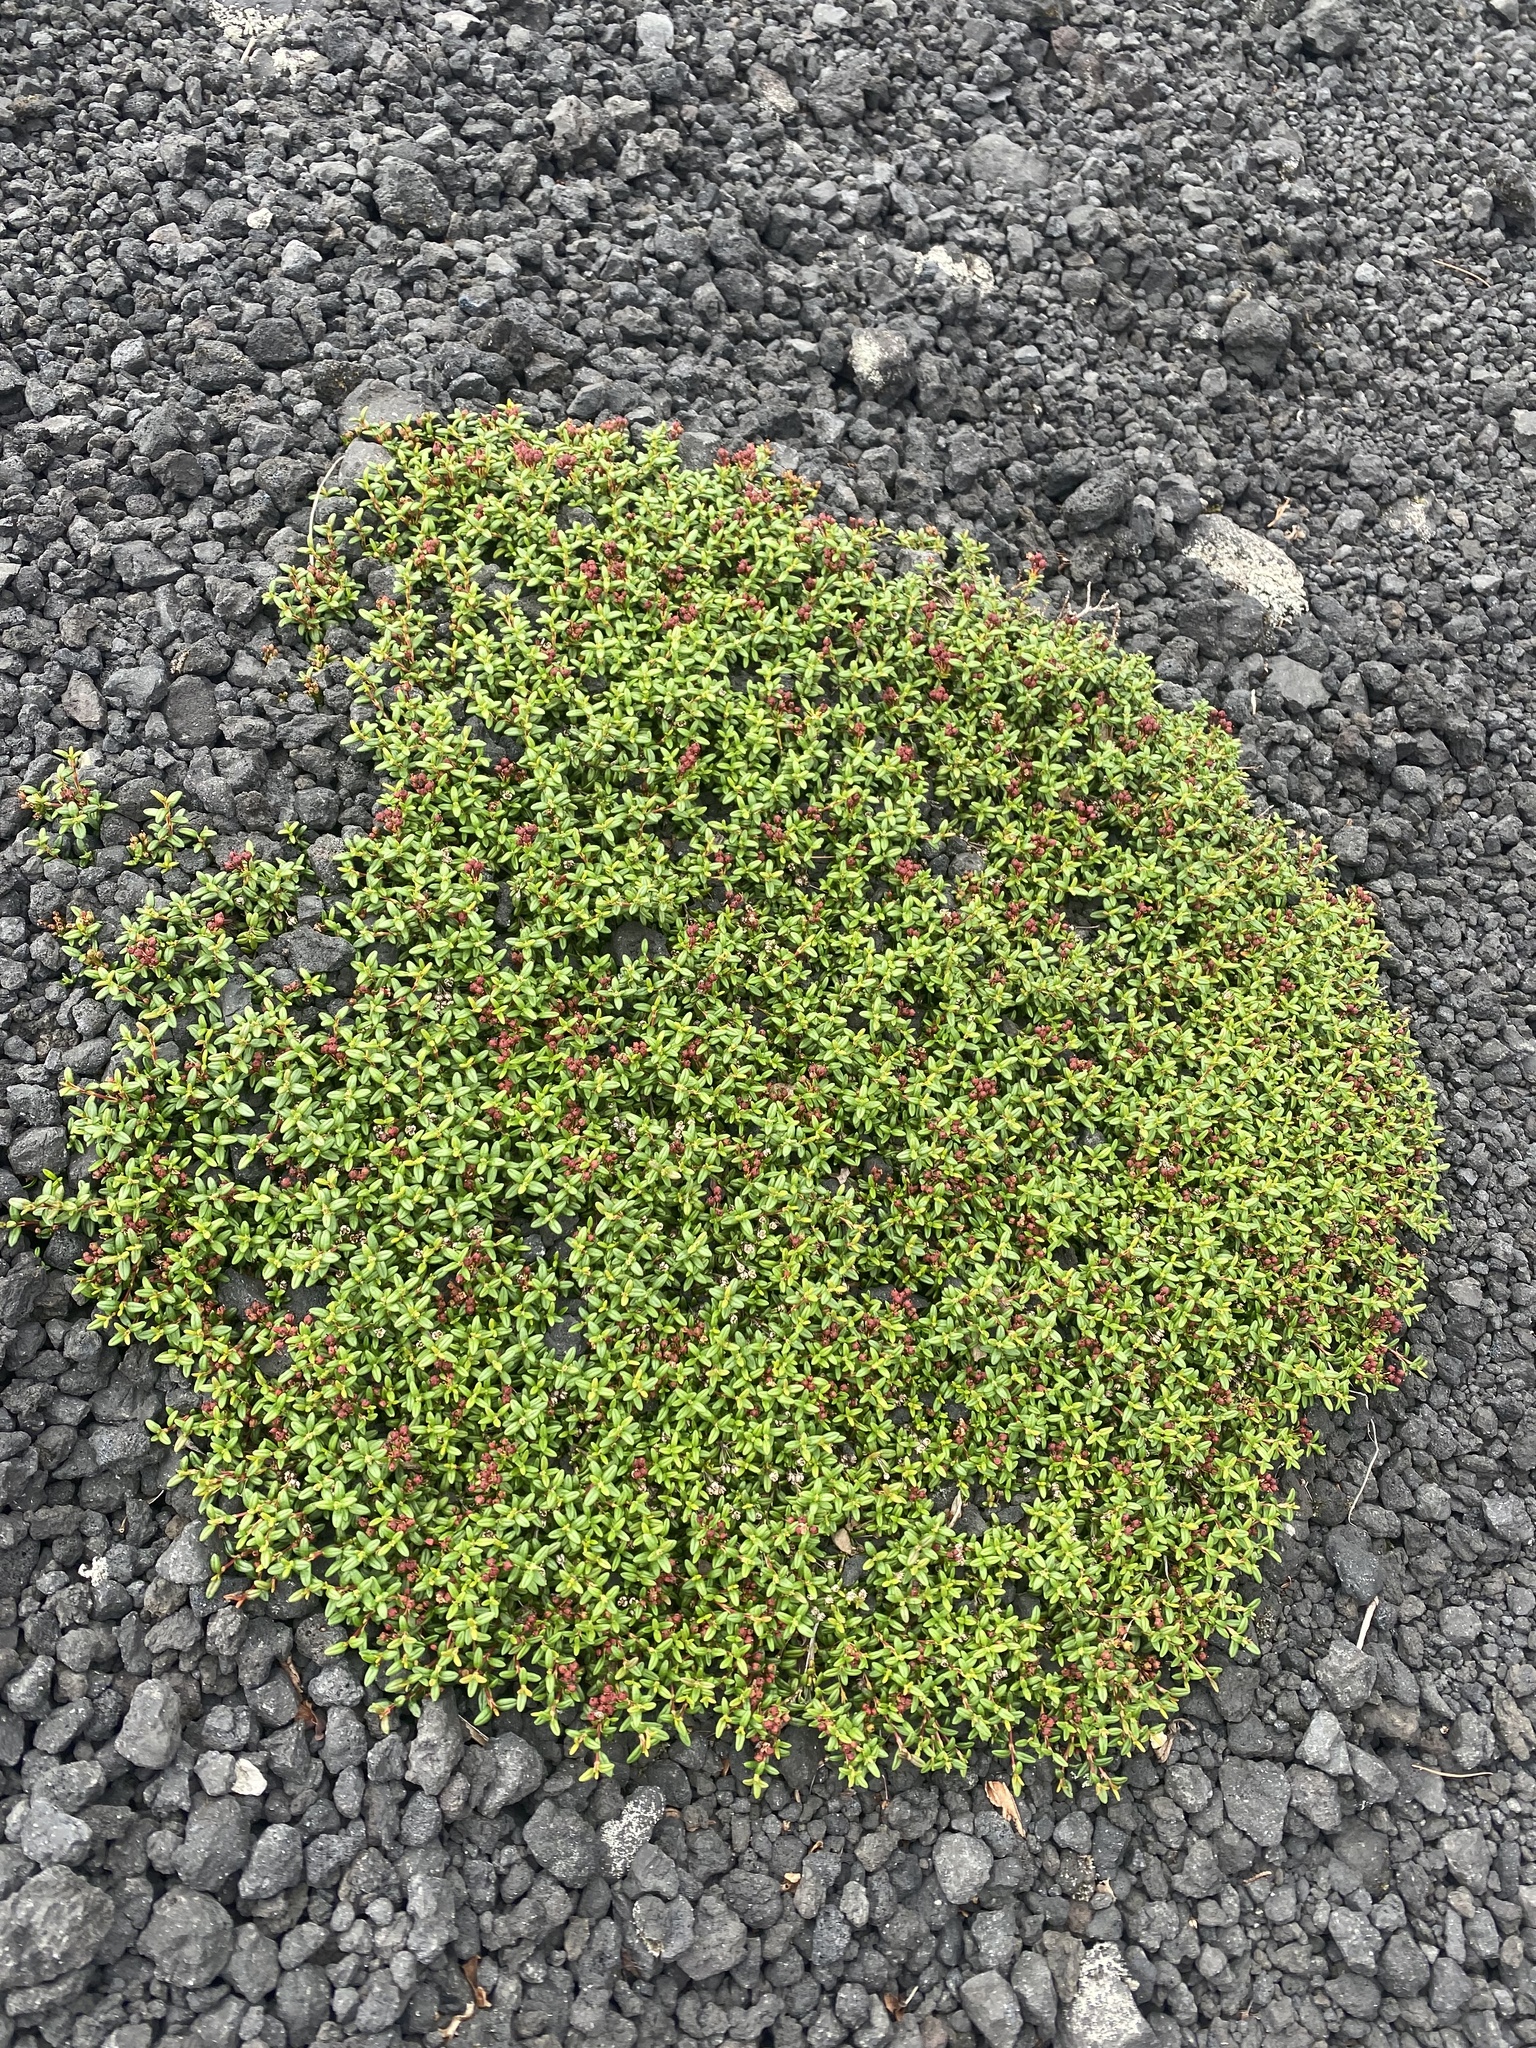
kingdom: Plantae
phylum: Tracheophyta
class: Magnoliopsida
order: Ericales
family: Ericaceae
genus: Kalmia
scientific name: Kalmia procumbens
